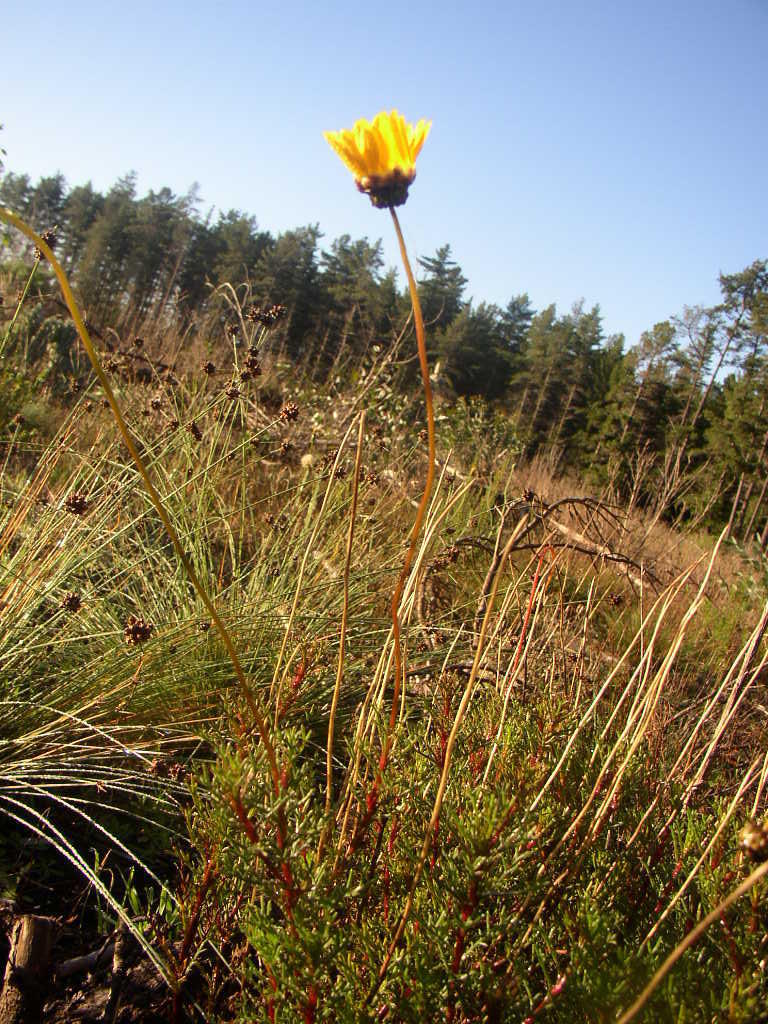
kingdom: Plantae
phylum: Tracheophyta
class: Magnoliopsida
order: Asterales
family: Asteraceae
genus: Ursinia
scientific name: Ursinia paleacea
